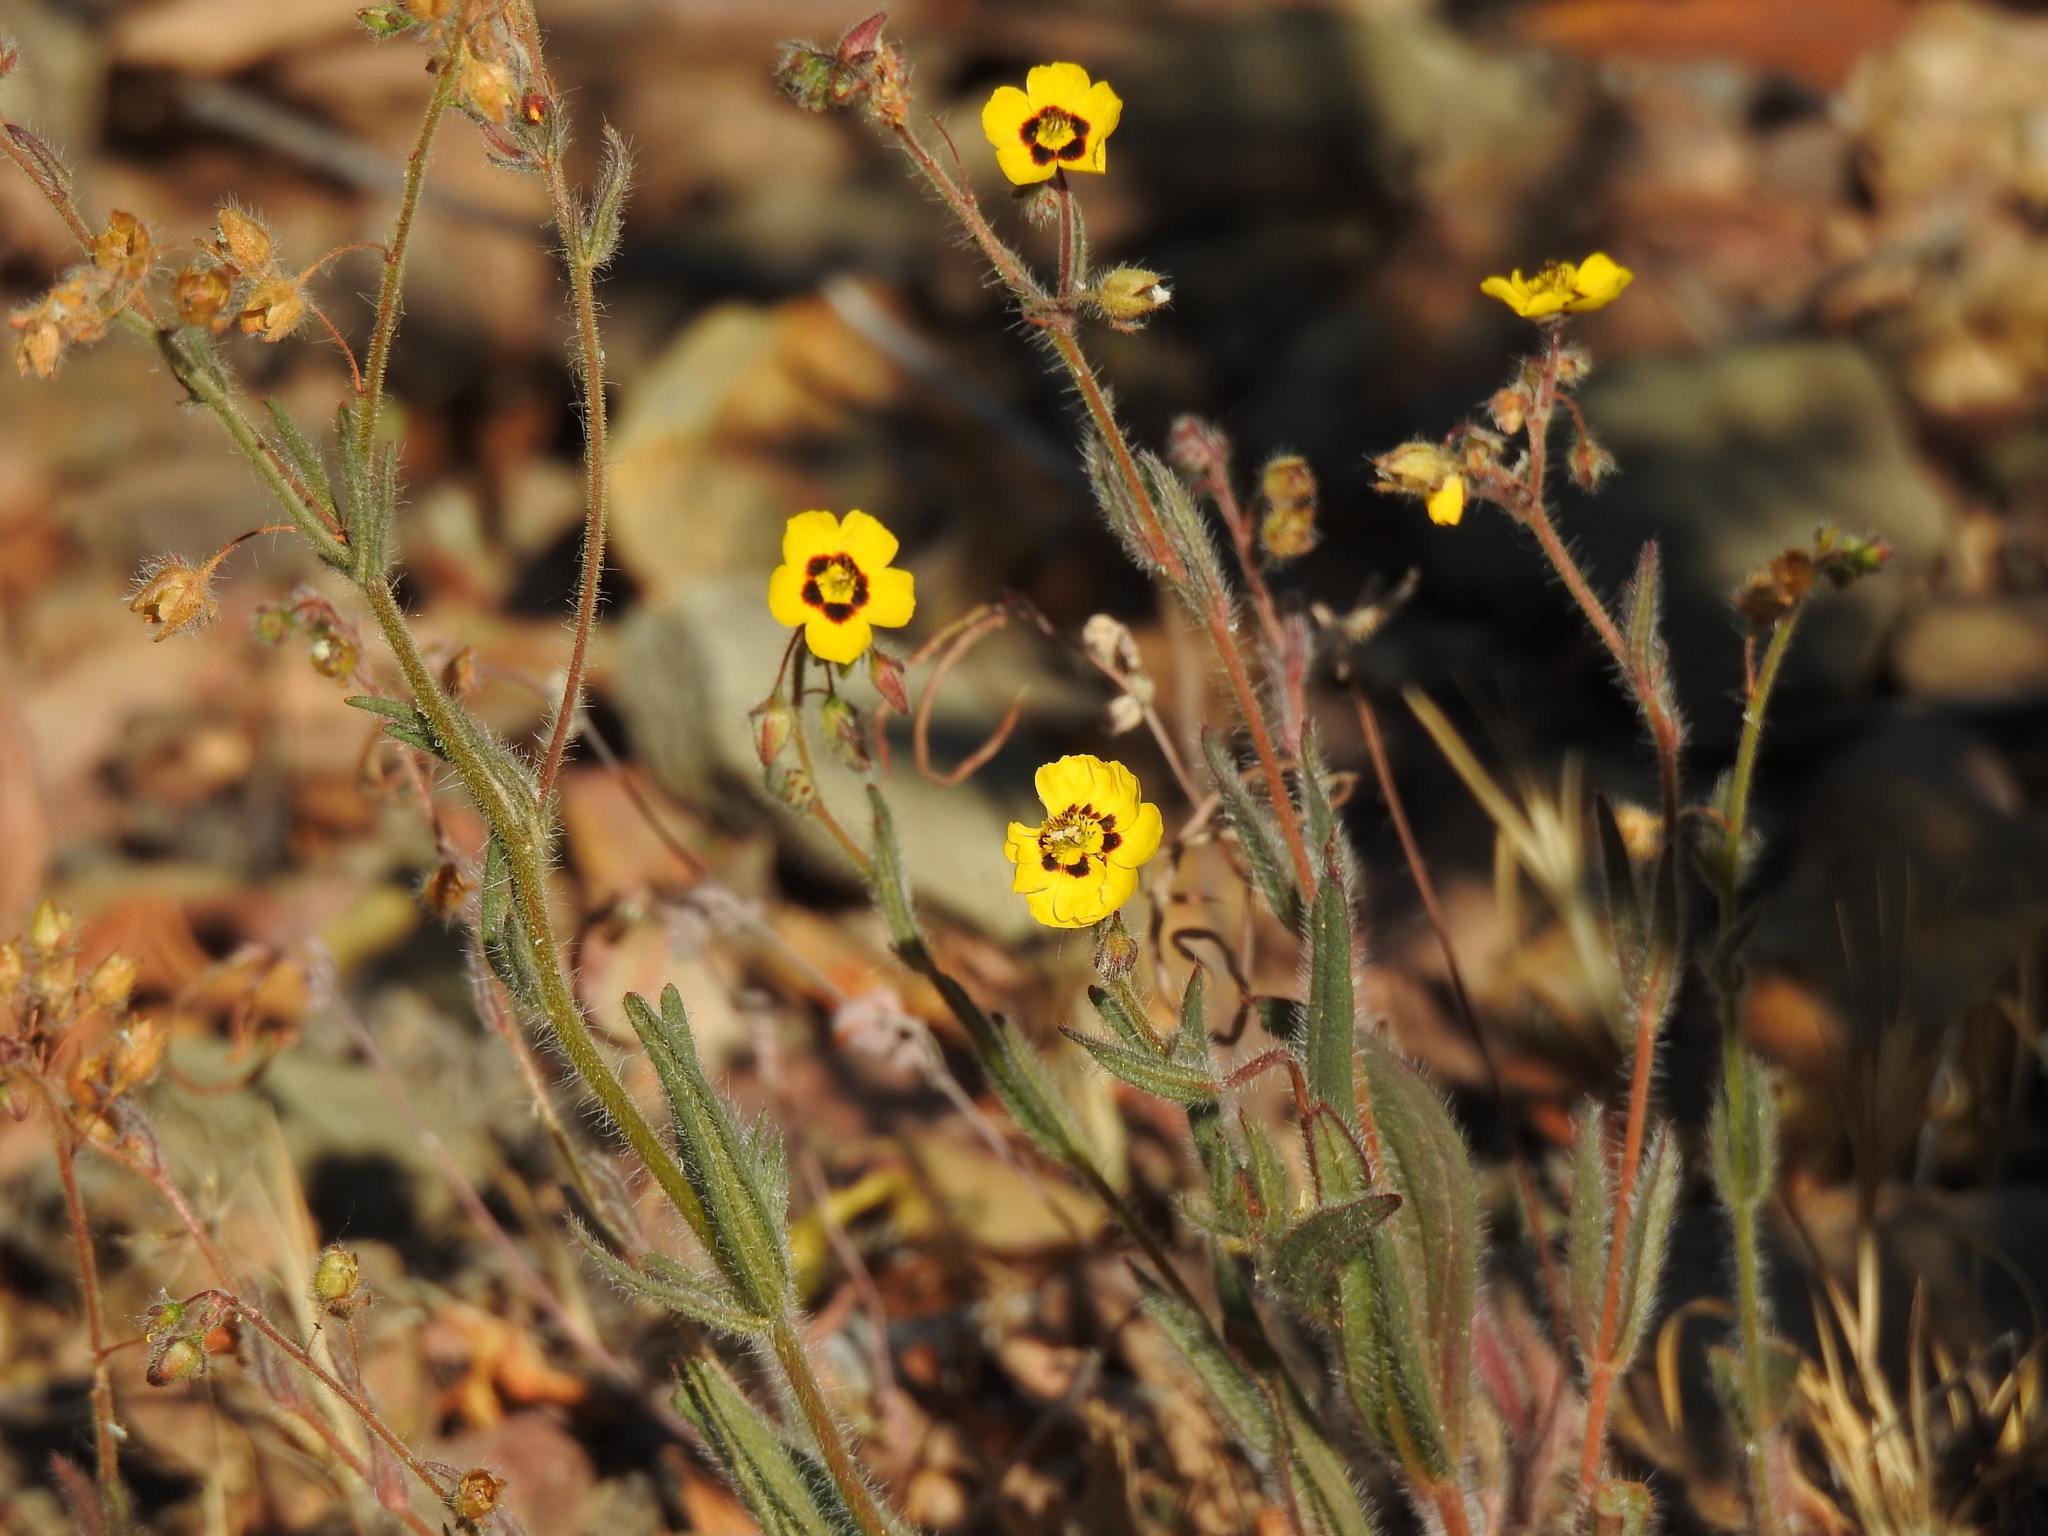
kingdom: Plantae
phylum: Tracheophyta
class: Magnoliopsida
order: Malvales
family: Cistaceae
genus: Tuberaria
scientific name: Tuberaria guttata
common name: Spotted rock-rose
